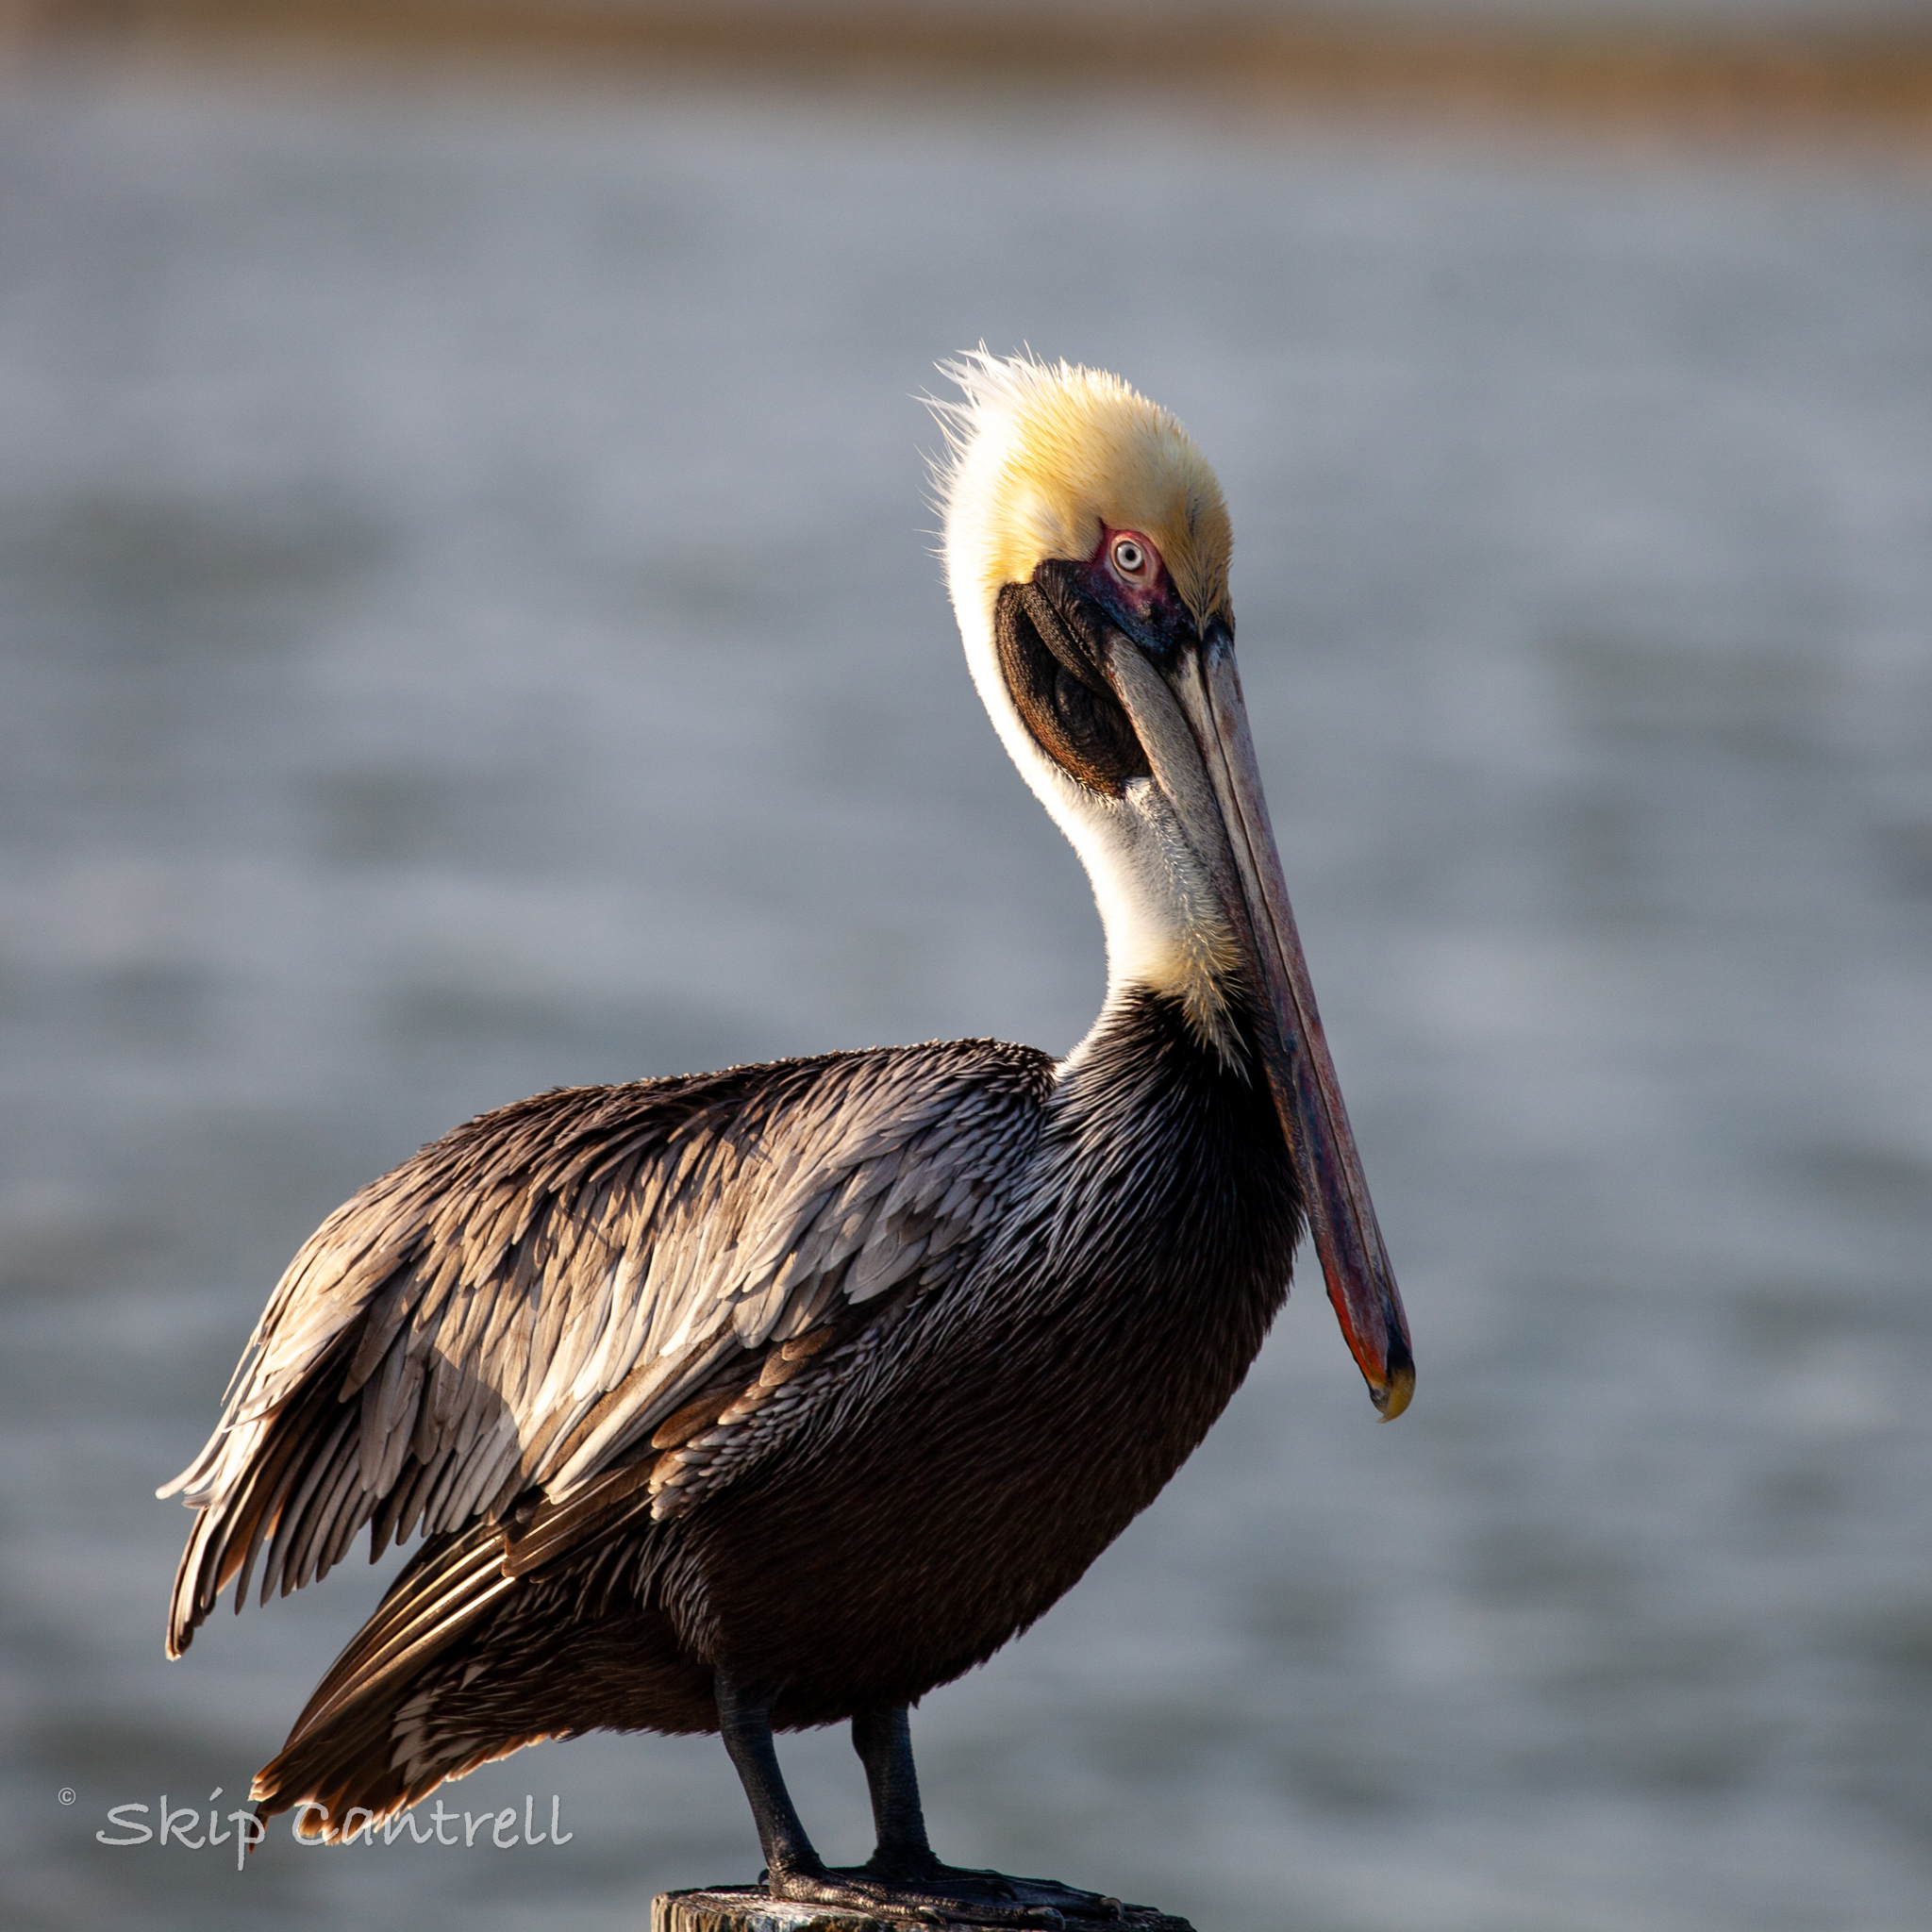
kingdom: Animalia
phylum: Chordata
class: Aves
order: Pelecaniformes
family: Pelecanidae
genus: Pelecanus
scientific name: Pelecanus occidentalis
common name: Brown pelican
